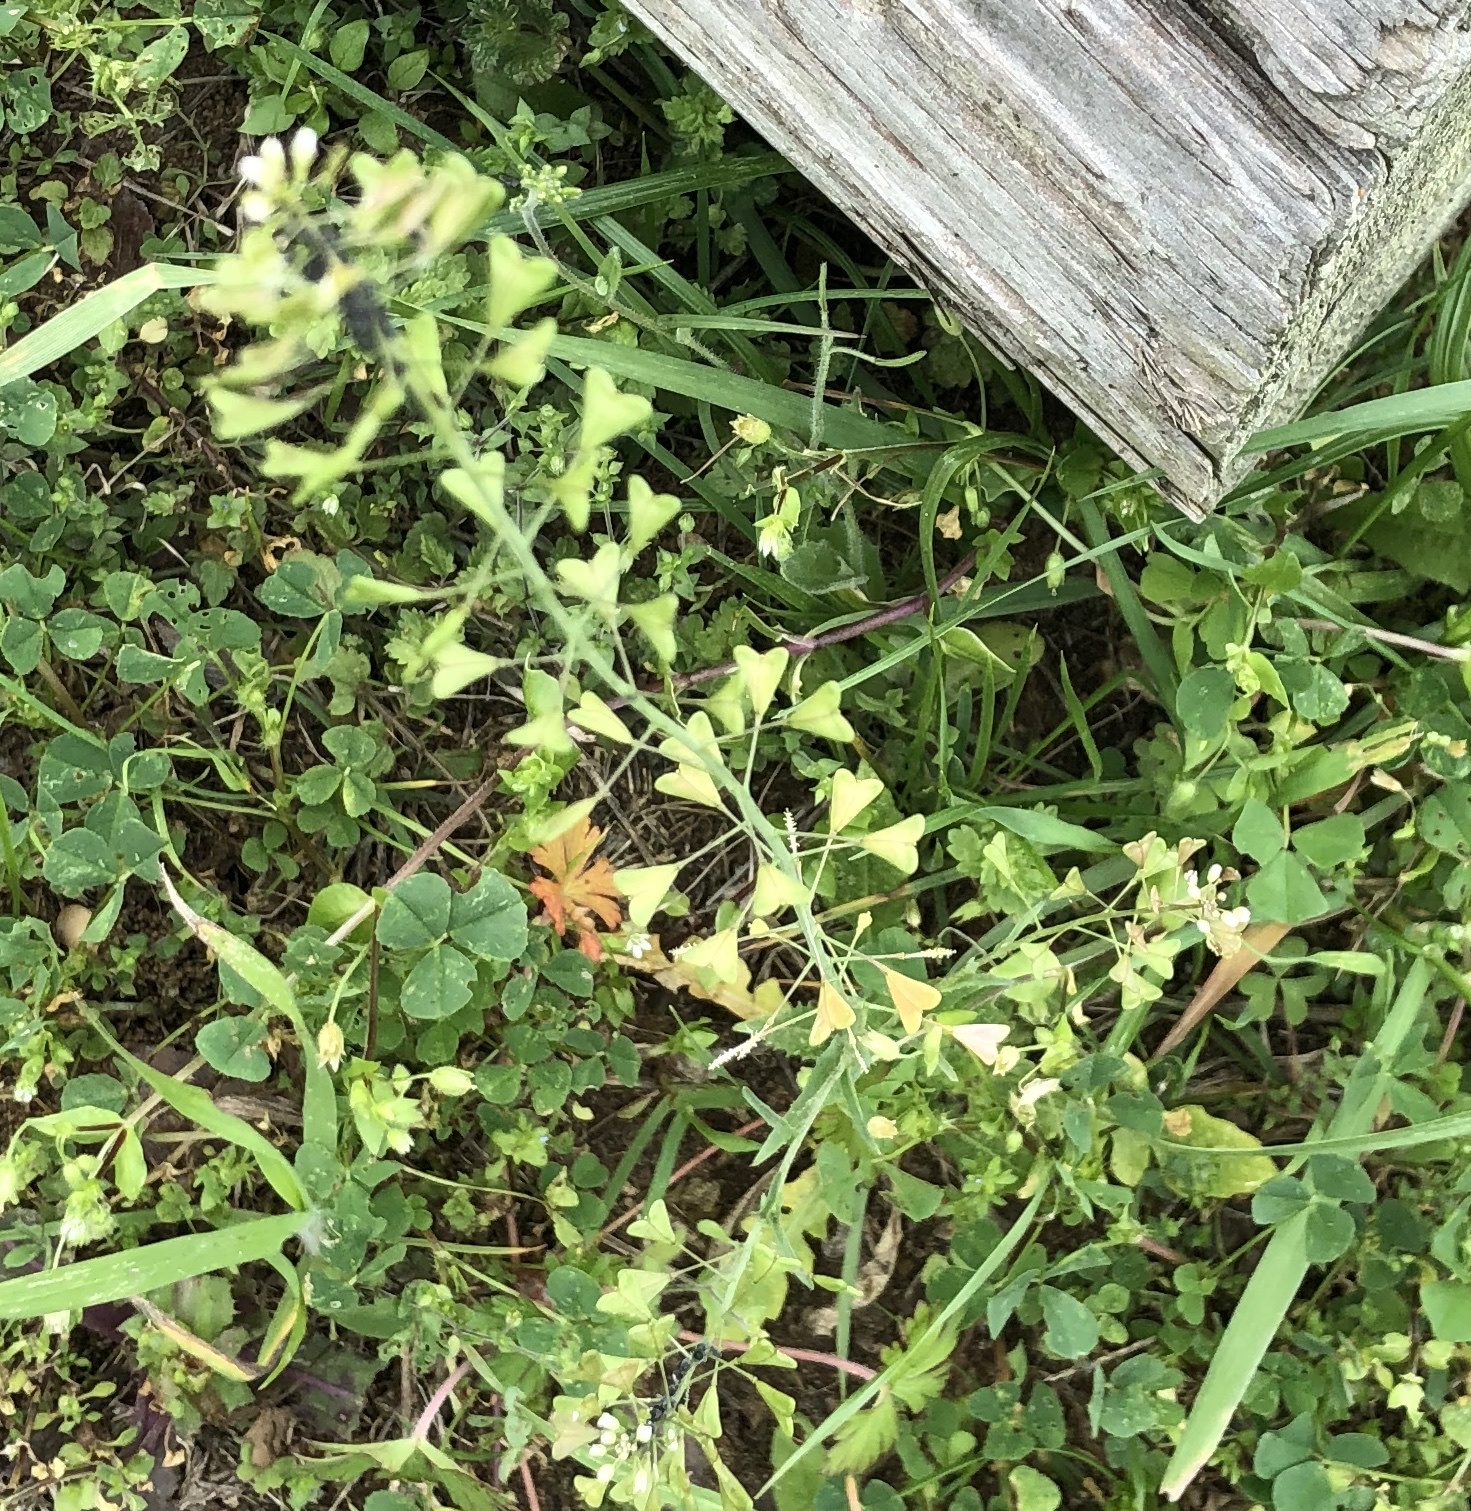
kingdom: Plantae
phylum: Tracheophyta
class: Magnoliopsida
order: Brassicales
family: Brassicaceae
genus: Capsella
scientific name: Capsella bursa-pastoris
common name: Shepherd's purse
